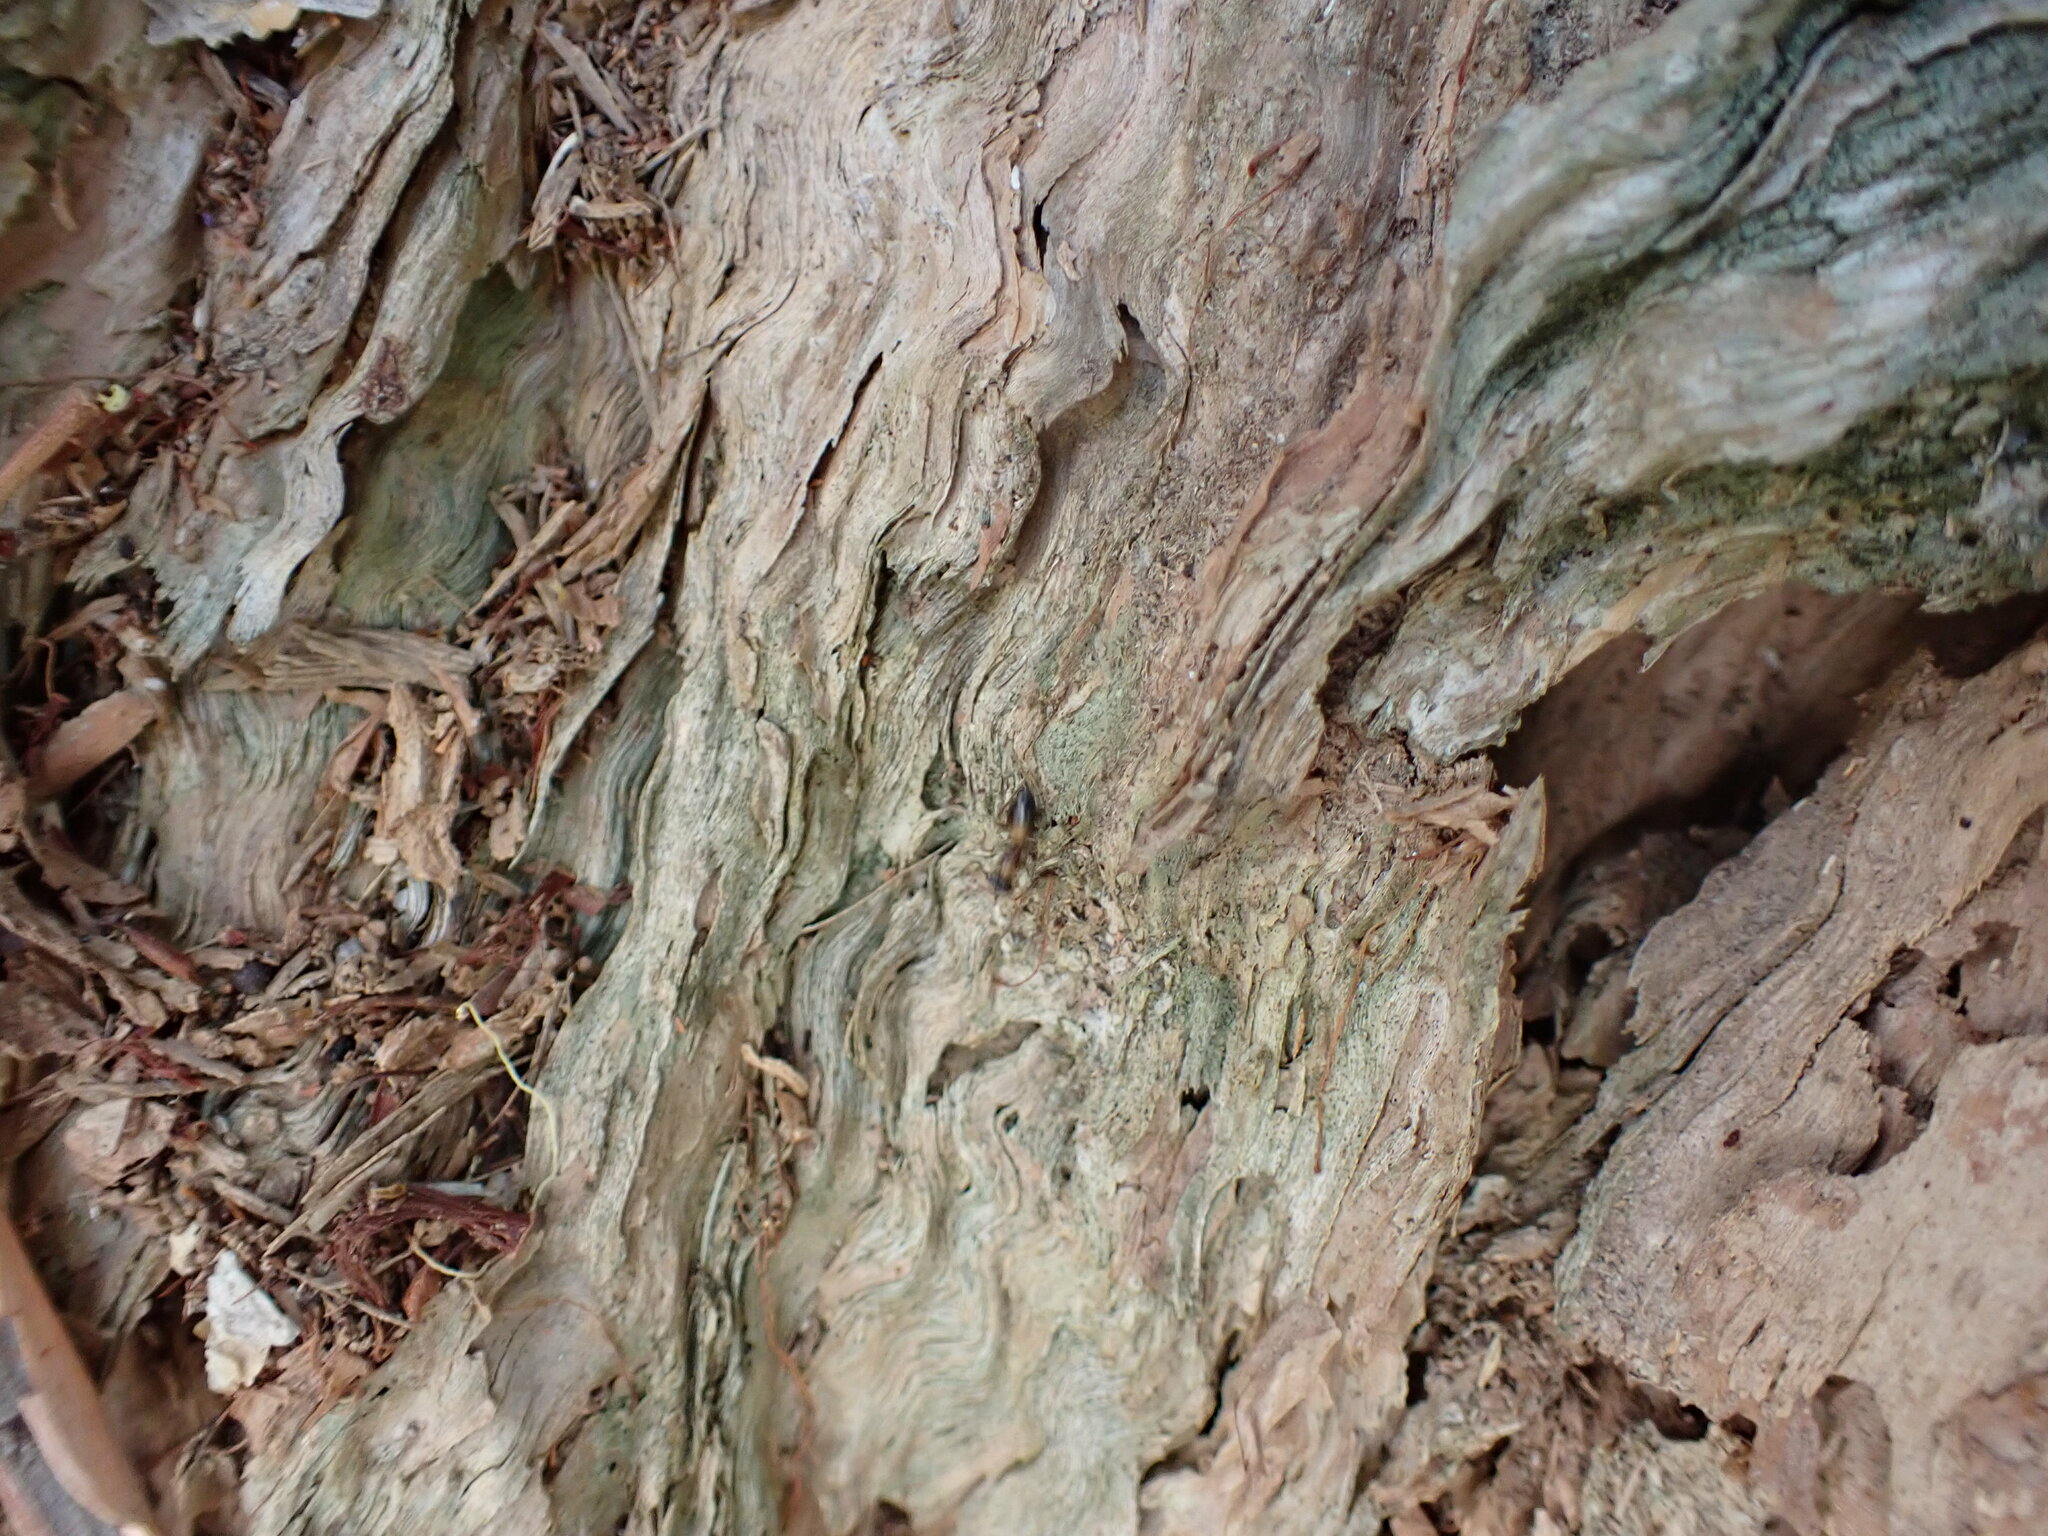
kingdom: Animalia
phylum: Arthropoda
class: Insecta
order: Hymenoptera
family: Formicidae
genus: Opisthopsis
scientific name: Opisthopsis pictus
